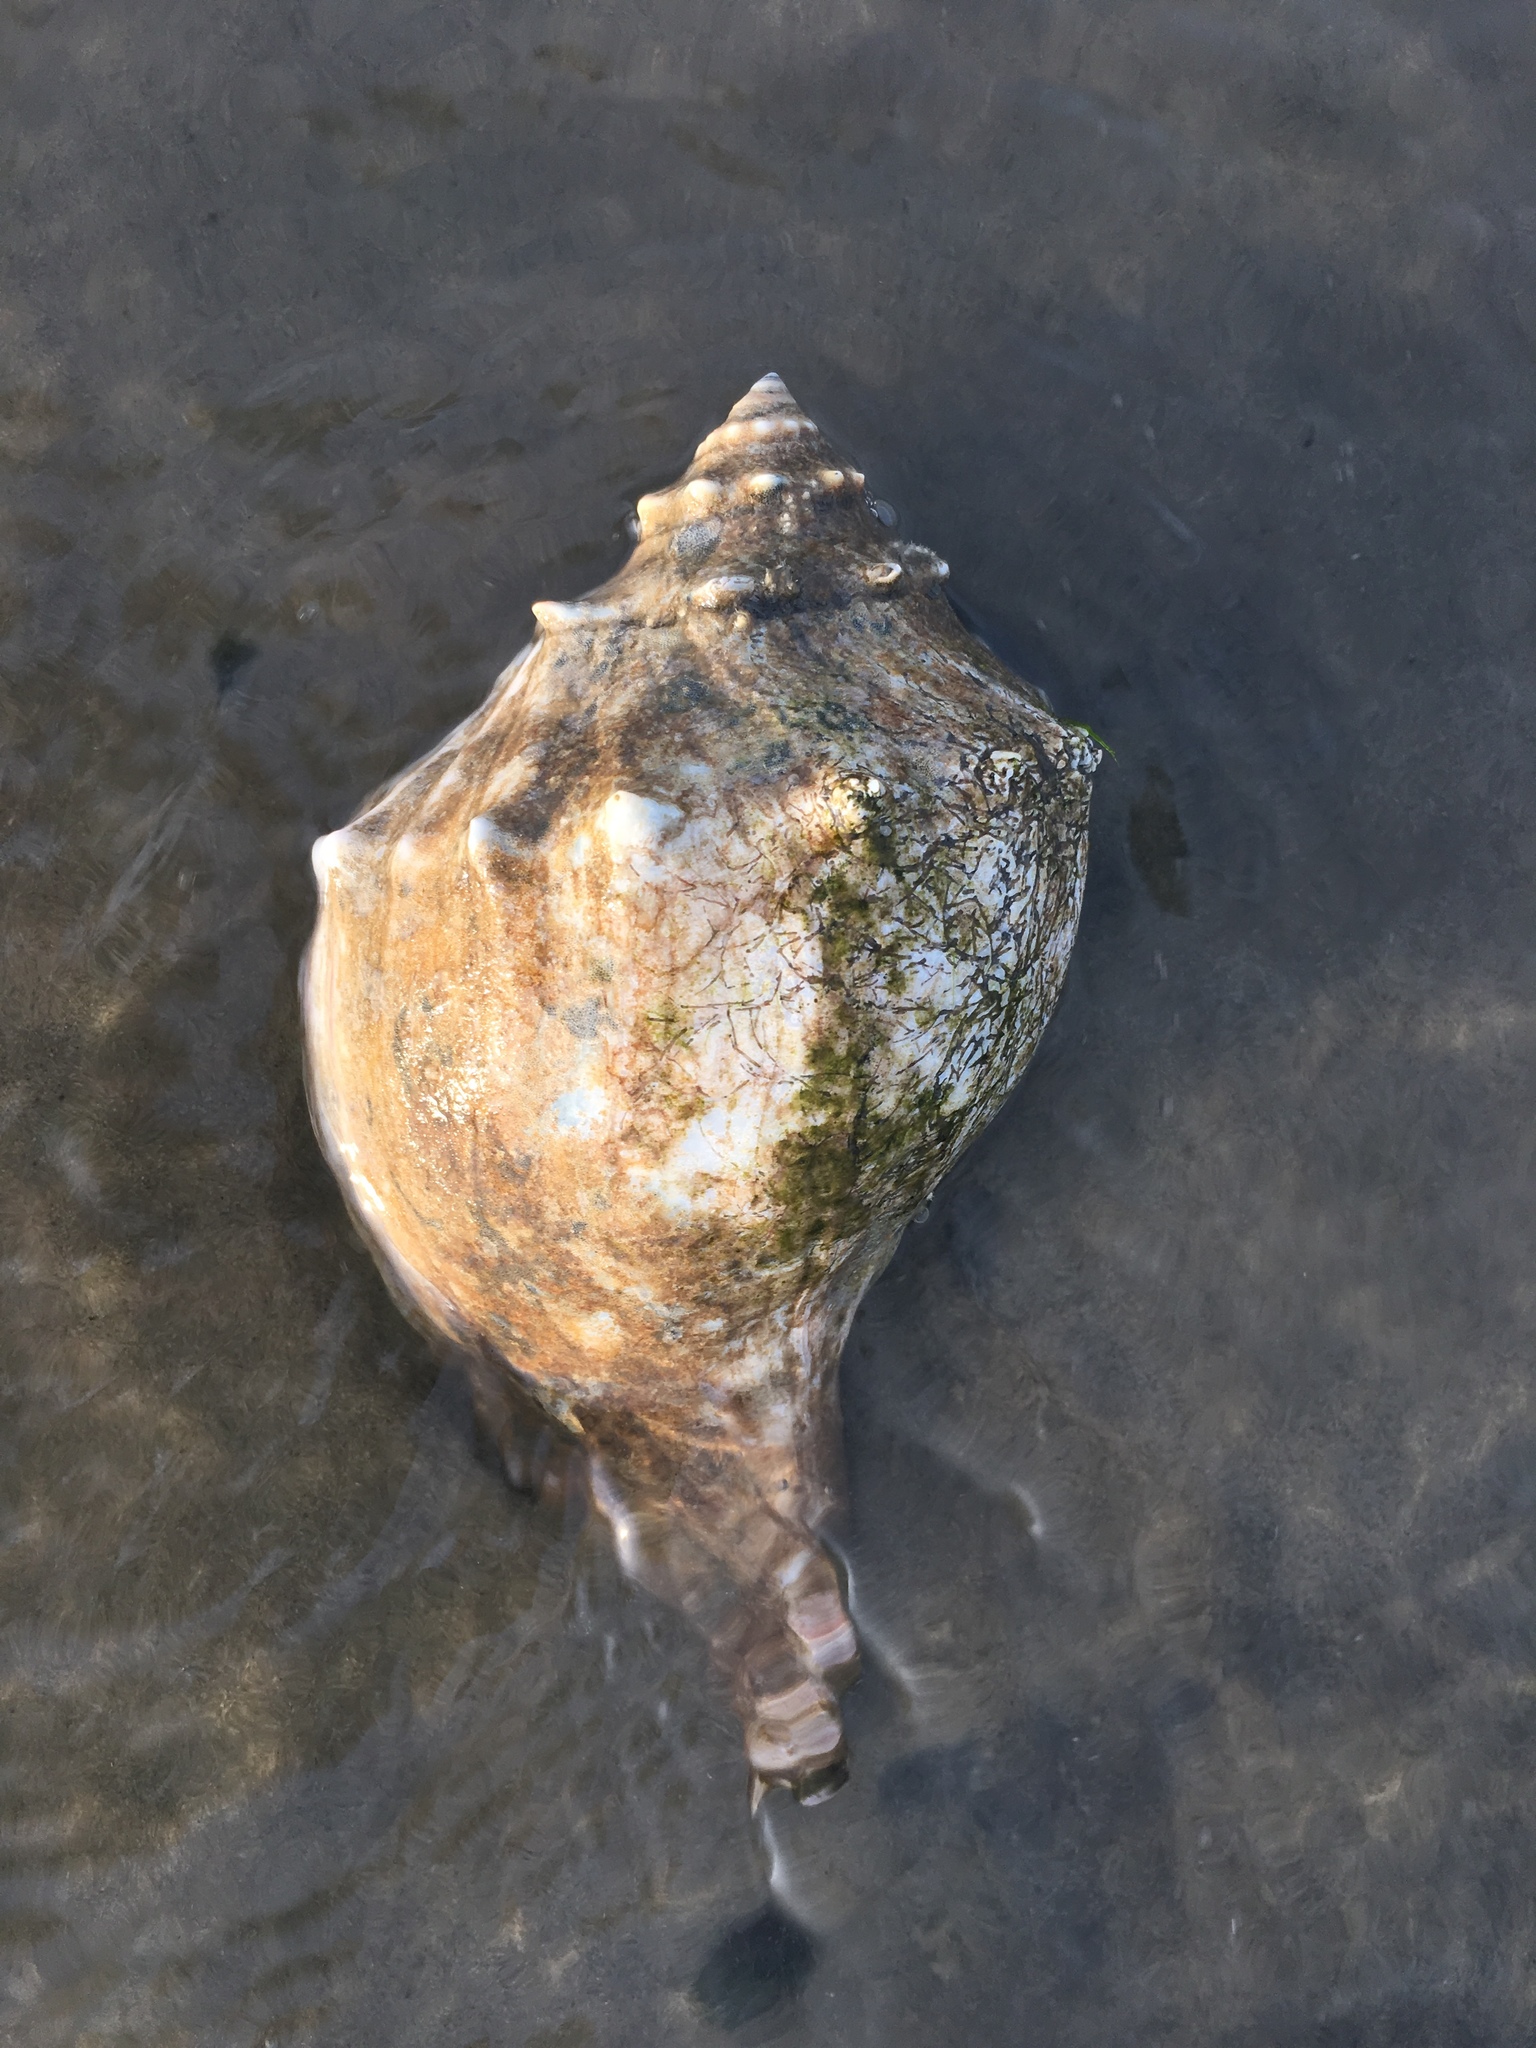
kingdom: Animalia
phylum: Mollusca
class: Gastropoda
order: Neogastropoda
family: Busyconidae
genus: Busycon
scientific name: Busycon carica
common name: Knobbed whelk
